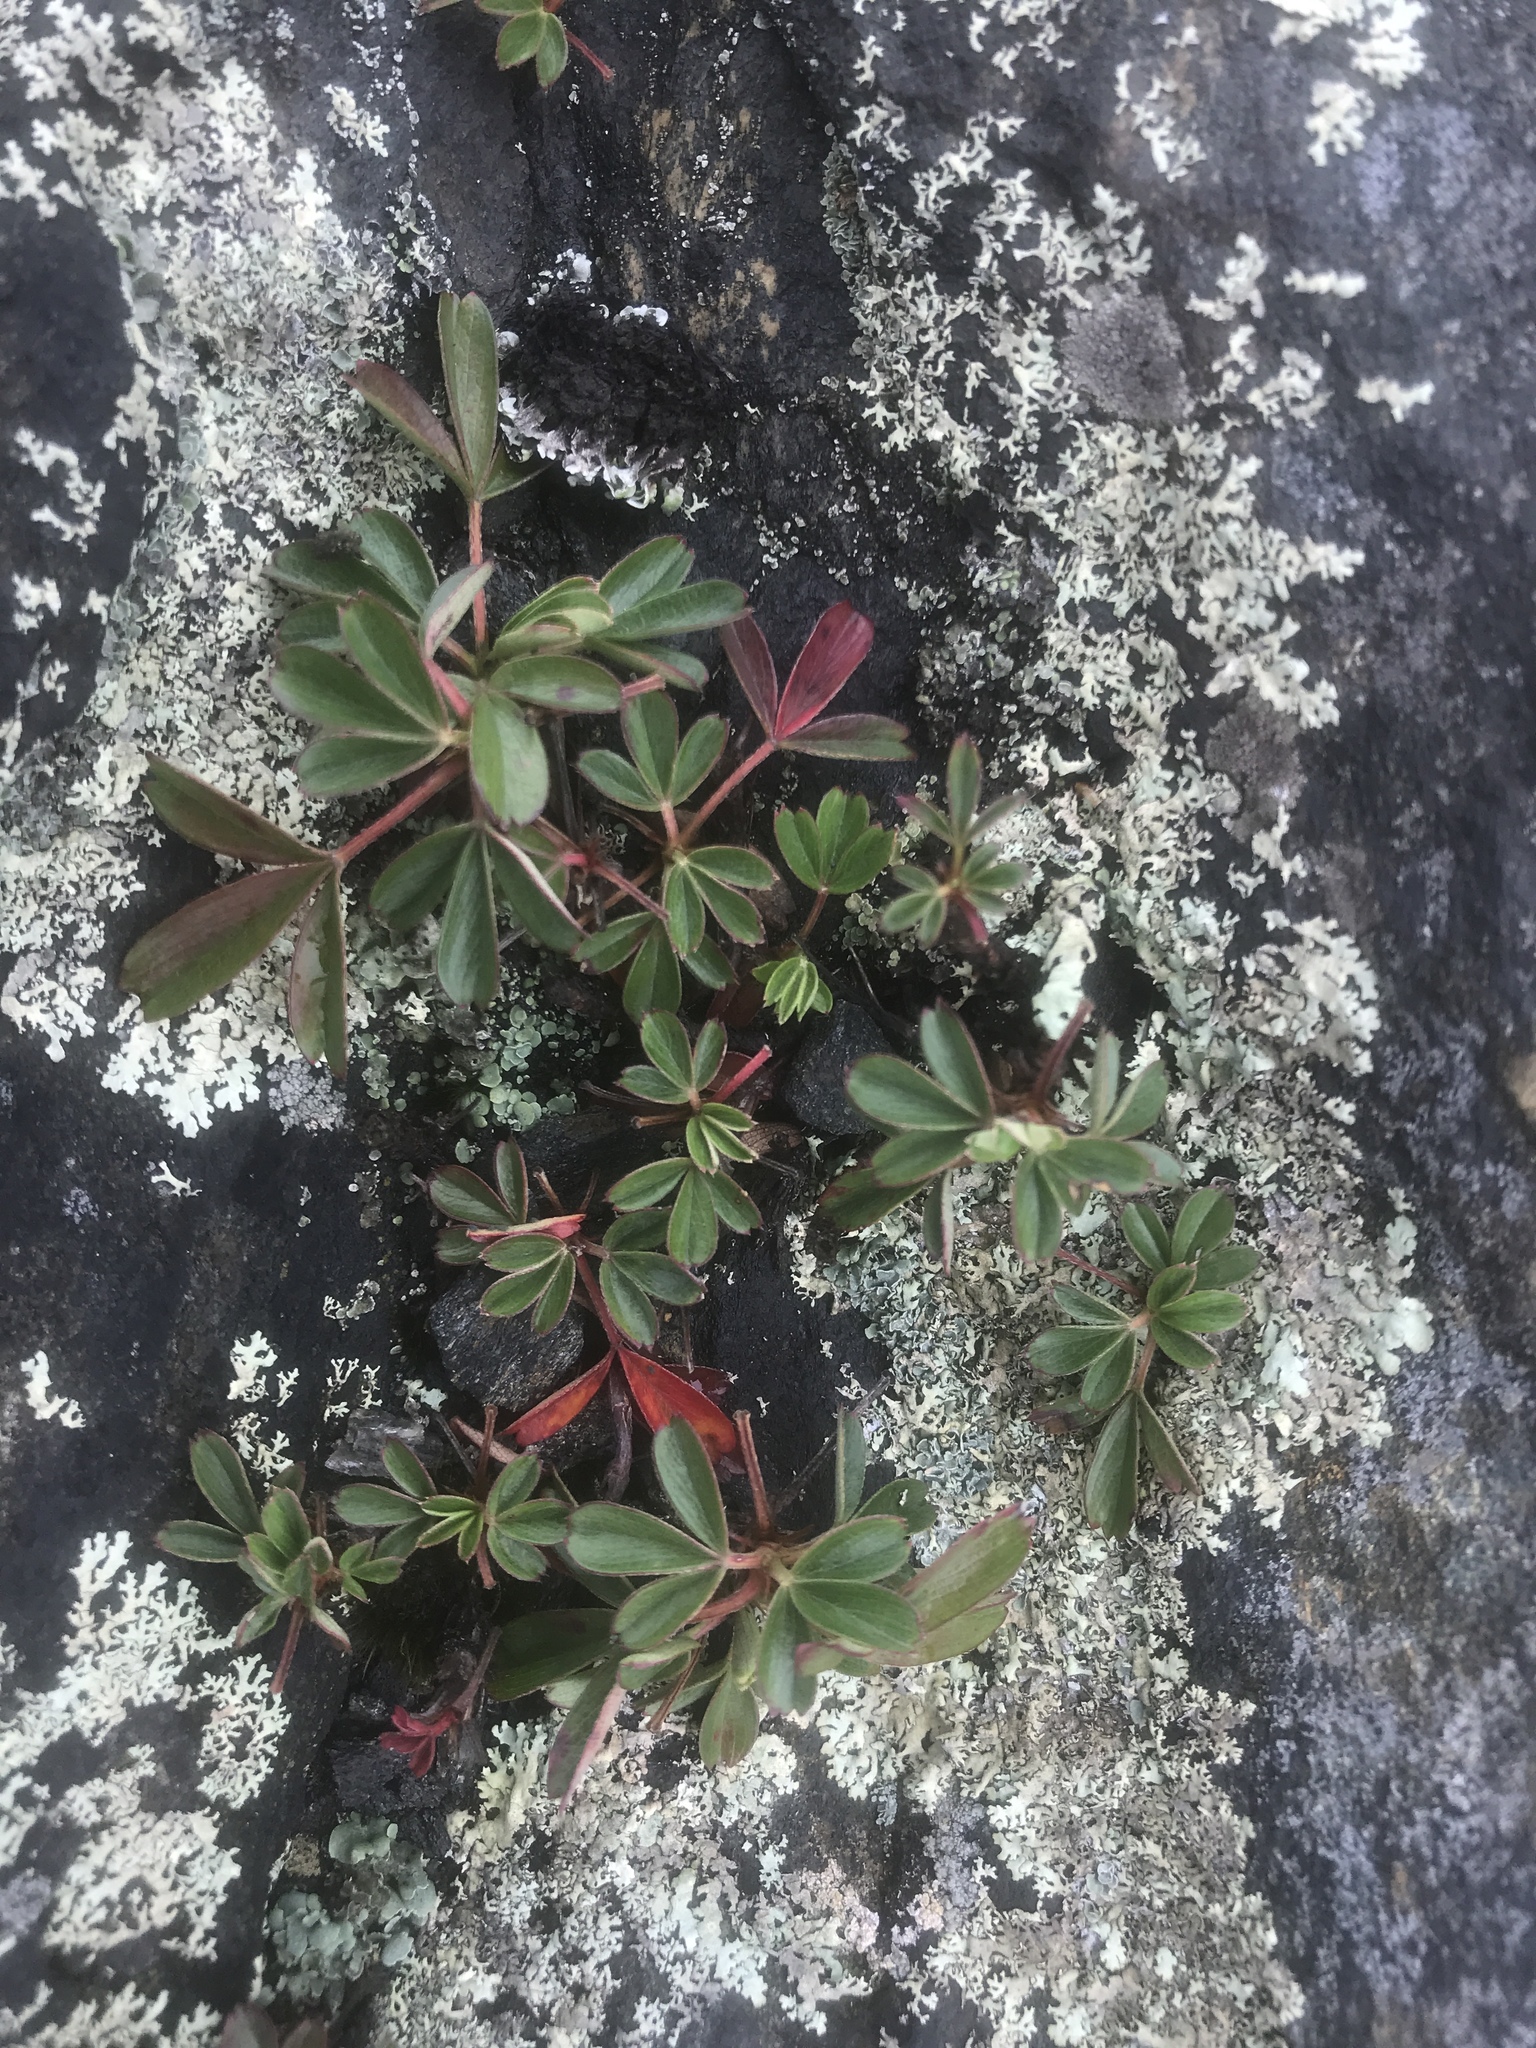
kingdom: Plantae
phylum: Tracheophyta
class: Magnoliopsida
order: Rosales
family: Rosaceae
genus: Sibbaldia
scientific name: Sibbaldia tridentata
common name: Three-toothed cinquefoil
